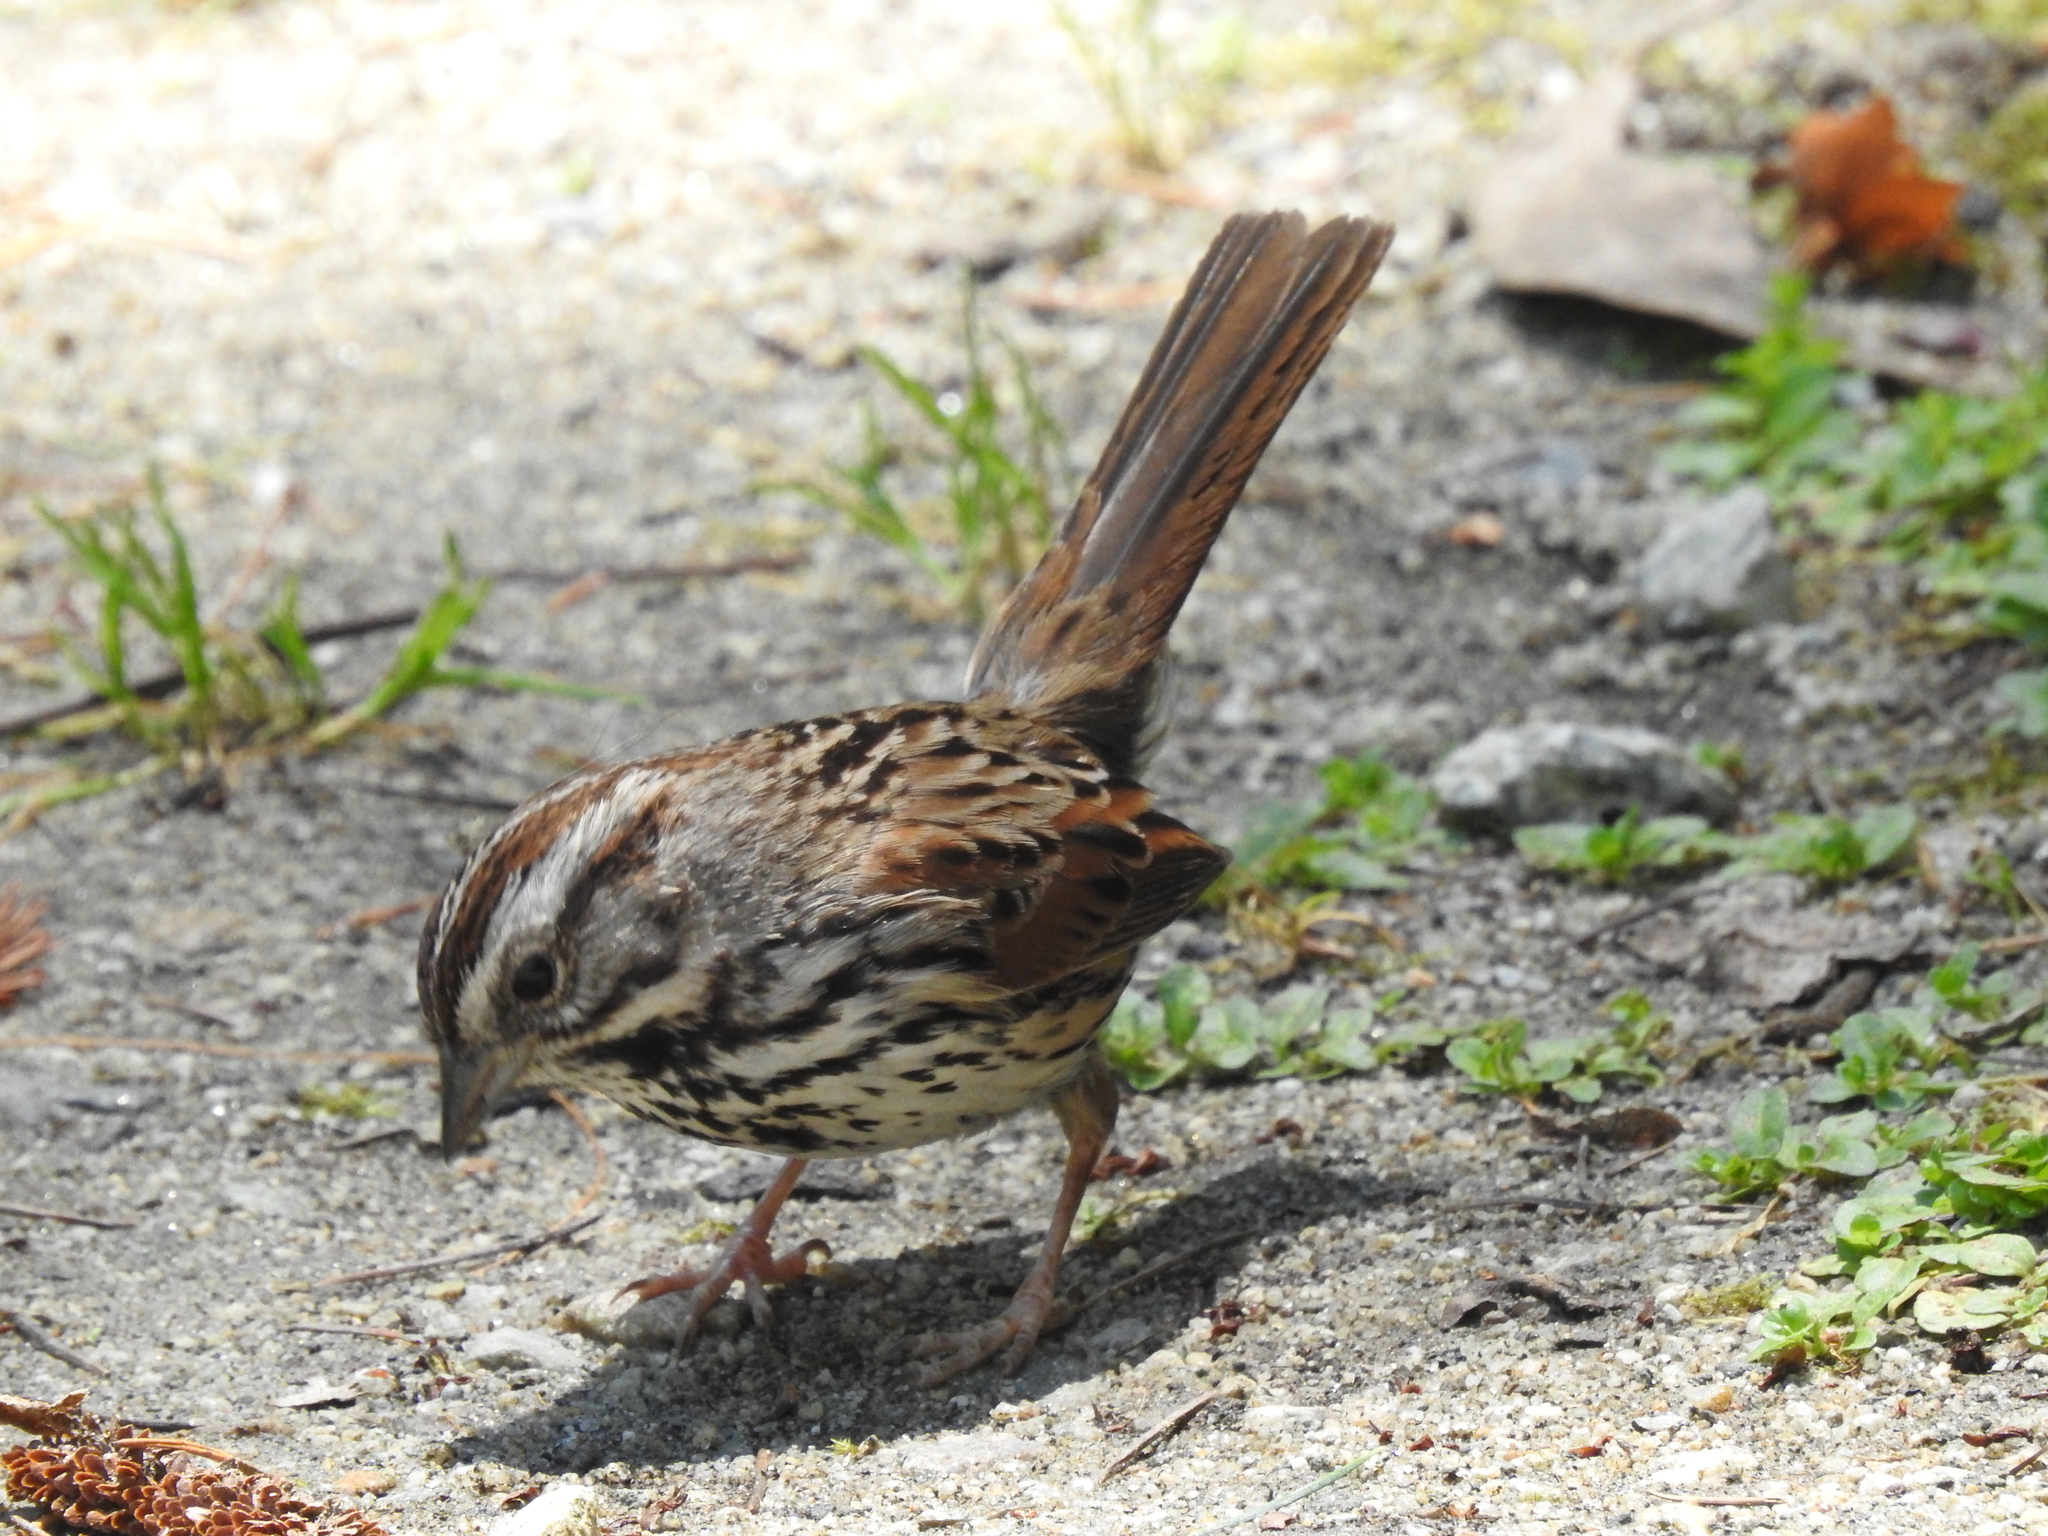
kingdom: Animalia
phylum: Chordata
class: Aves
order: Passeriformes
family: Passerellidae
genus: Melospiza
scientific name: Melospiza melodia
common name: Song sparrow
